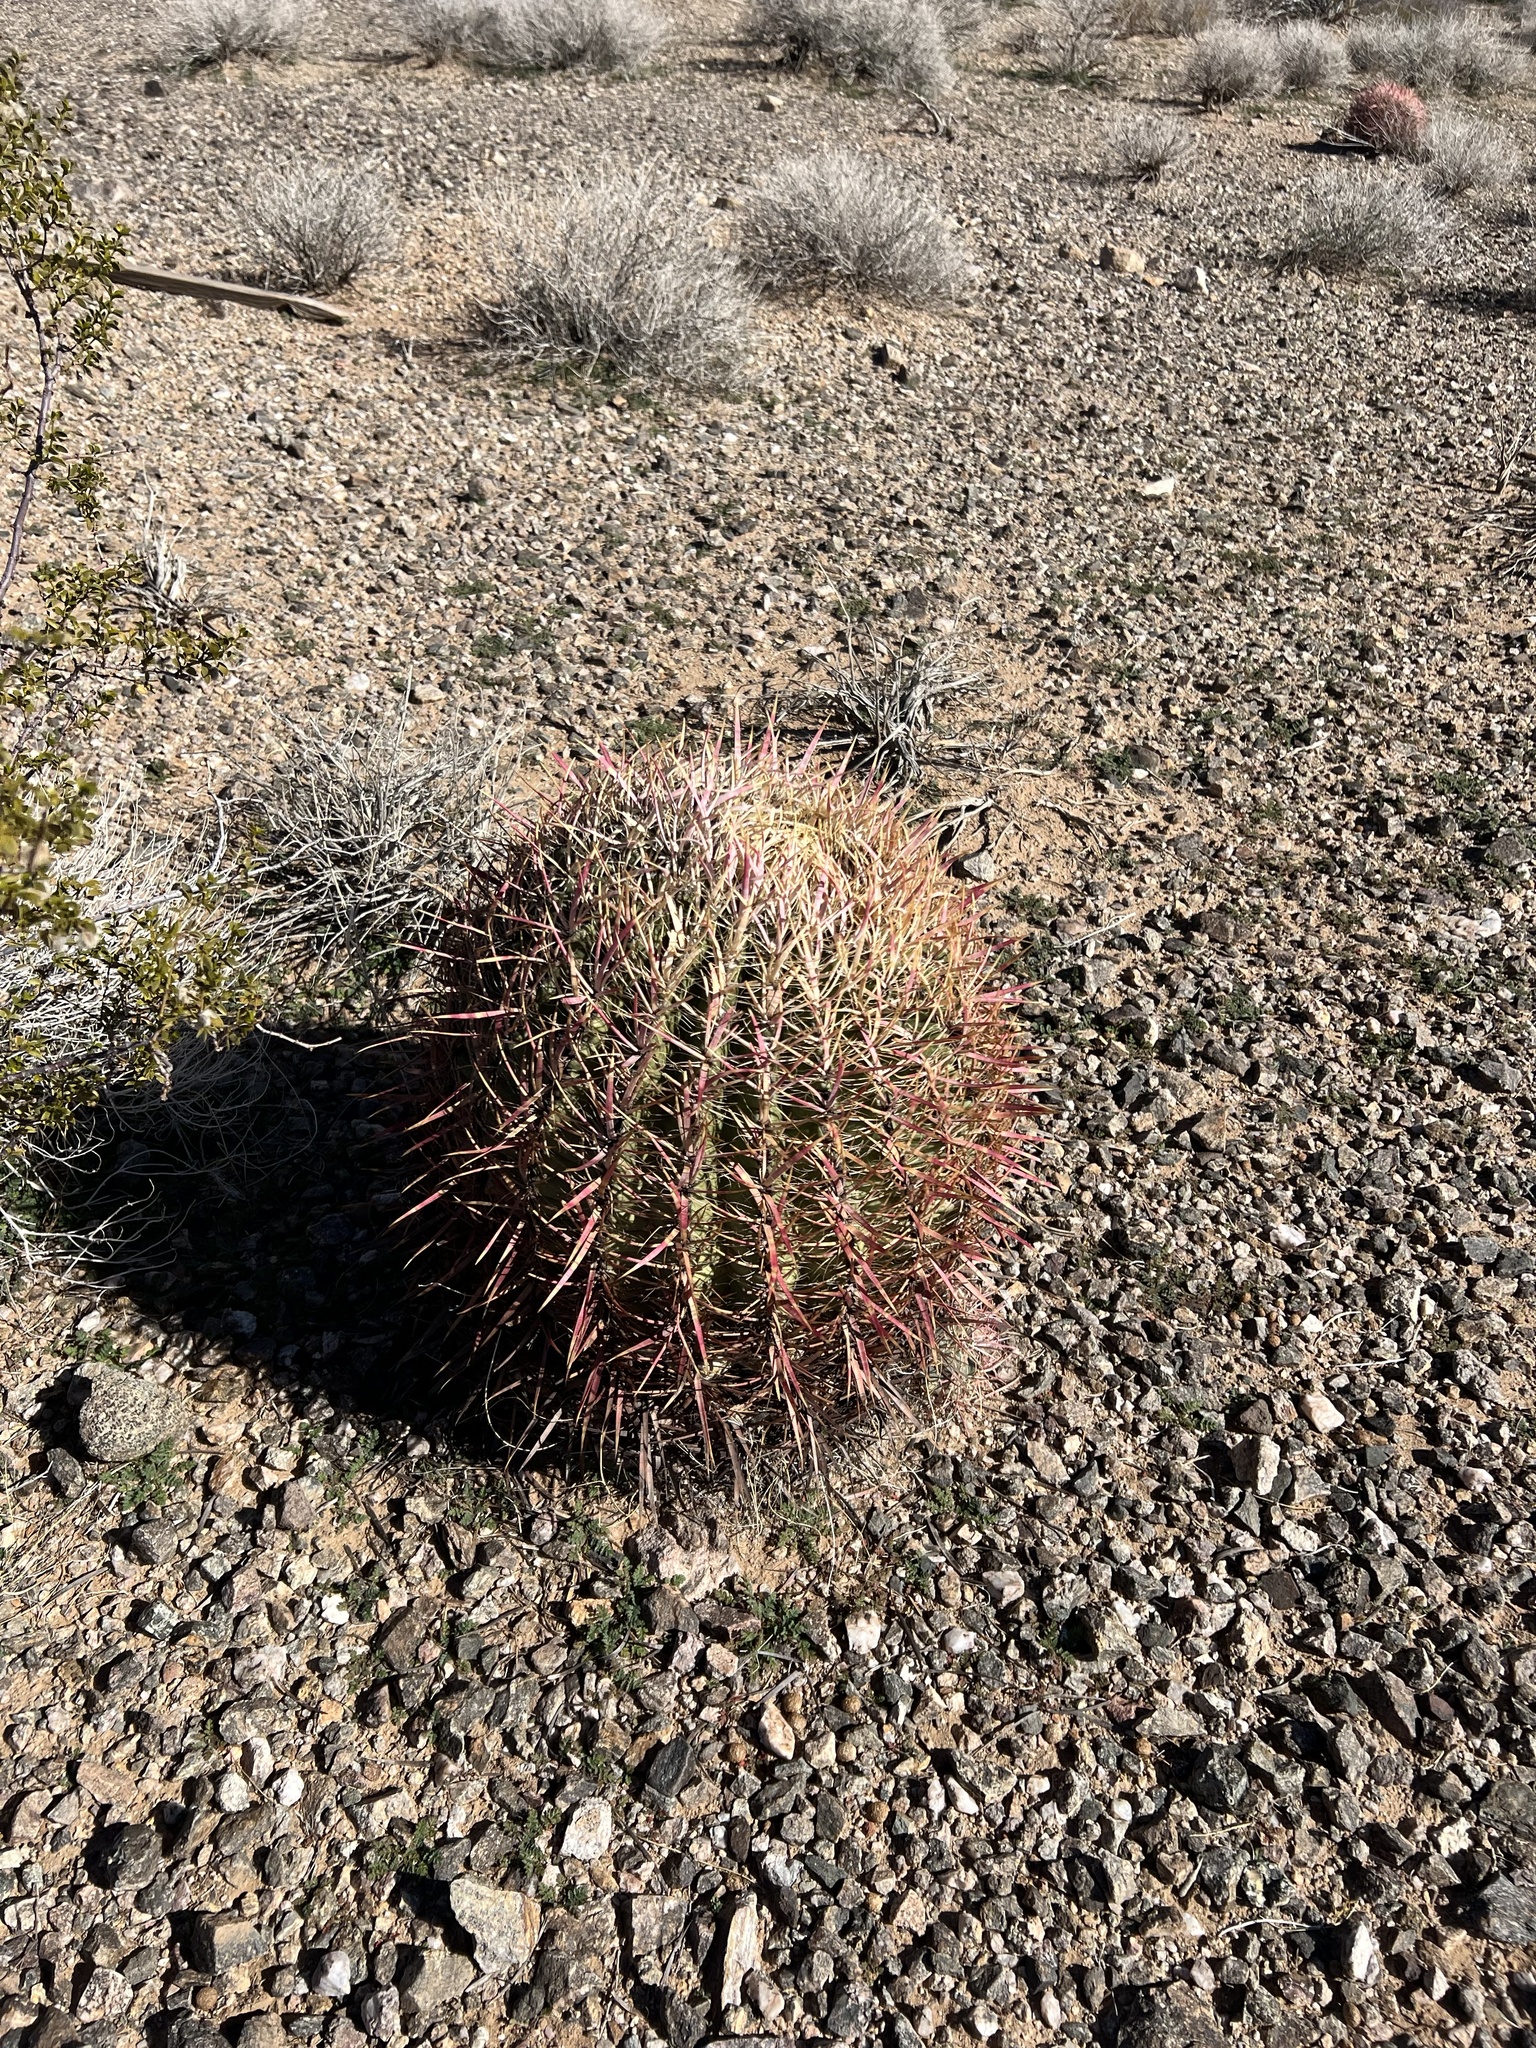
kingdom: Plantae
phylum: Tracheophyta
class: Magnoliopsida
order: Caryophyllales
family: Cactaceae
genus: Ferocactus
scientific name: Ferocactus cylindraceus
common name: California barrel cactus
